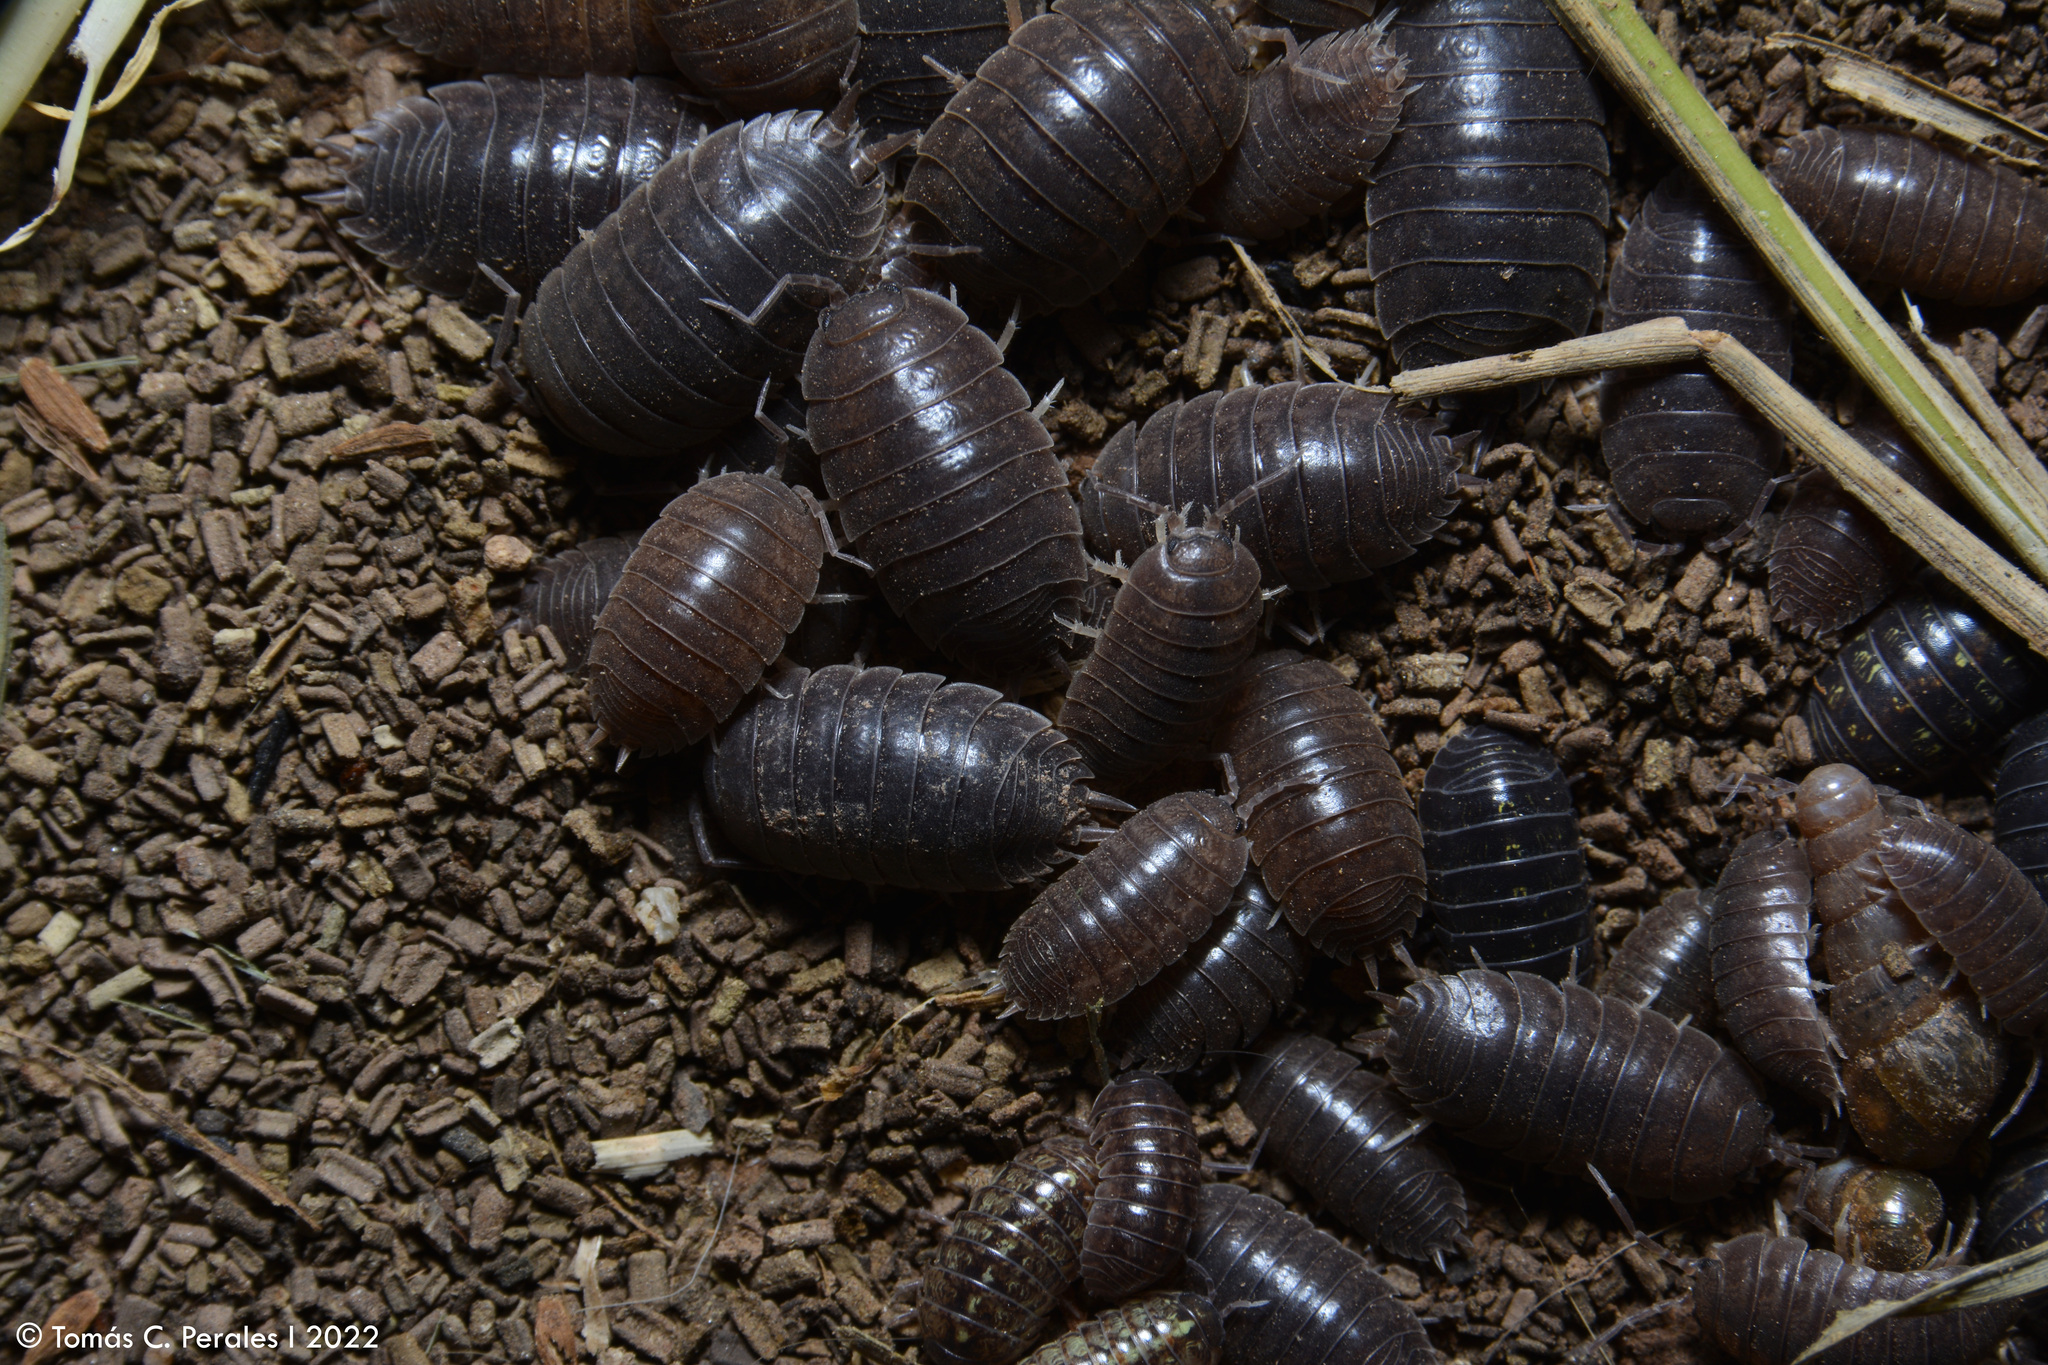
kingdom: Animalia
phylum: Arthropoda
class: Malacostraca
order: Isopoda
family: Porcellionidae
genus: Porcellio
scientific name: Porcellio laevis
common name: Swift woodlouse
